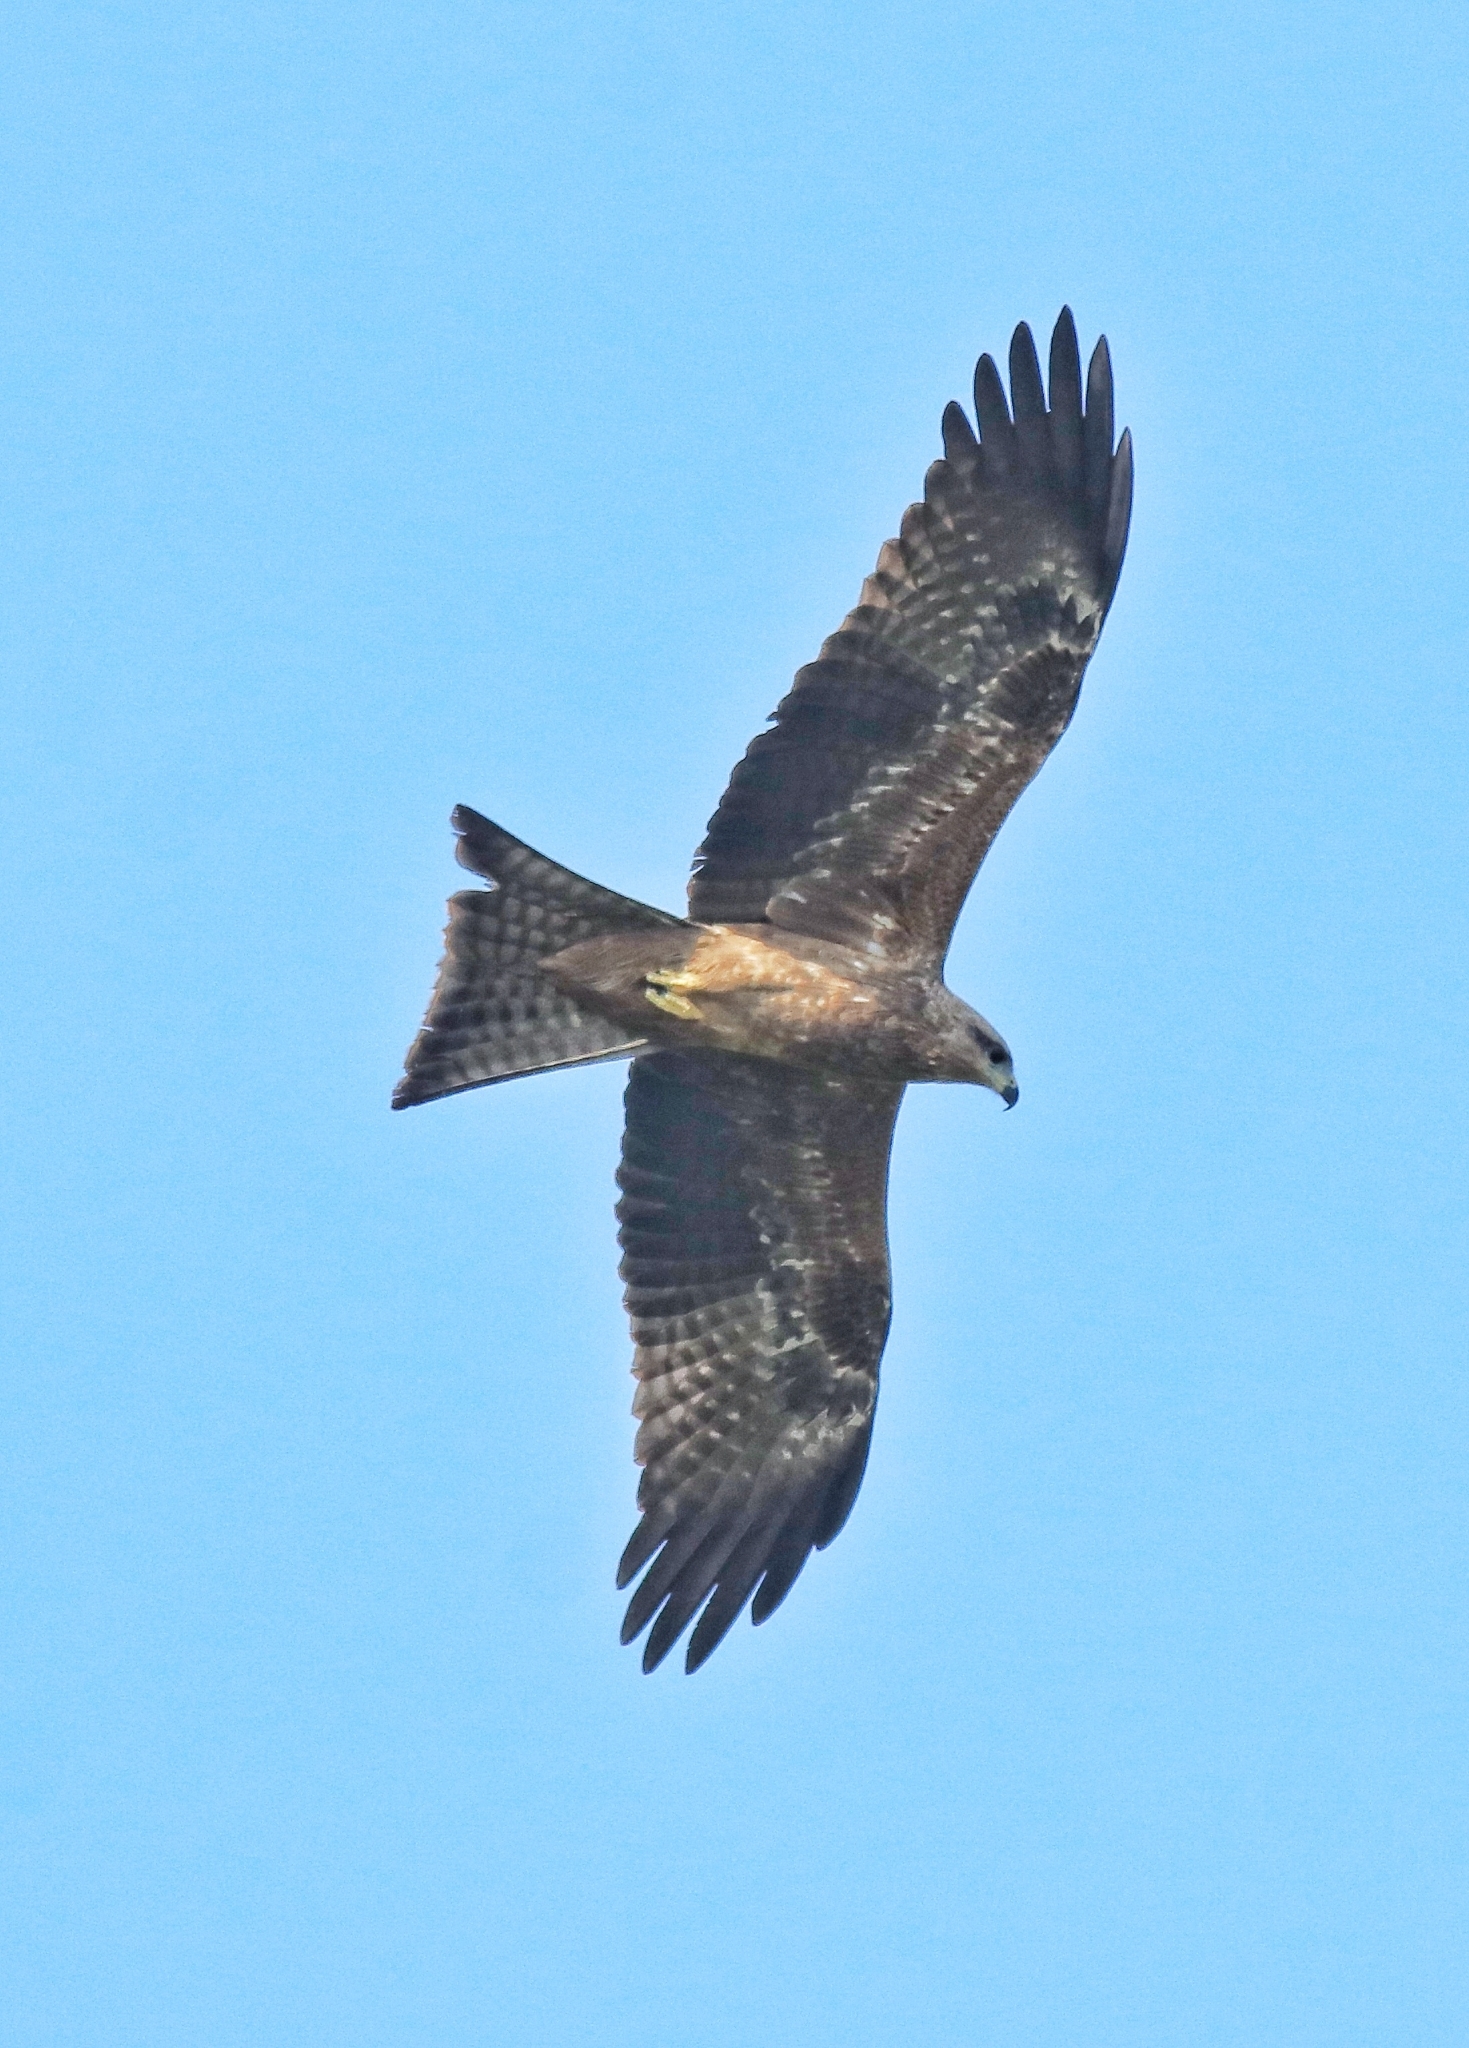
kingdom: Animalia
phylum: Chordata
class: Aves
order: Accipitriformes
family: Accipitridae
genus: Milvus
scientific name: Milvus migrans
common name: Black kite
